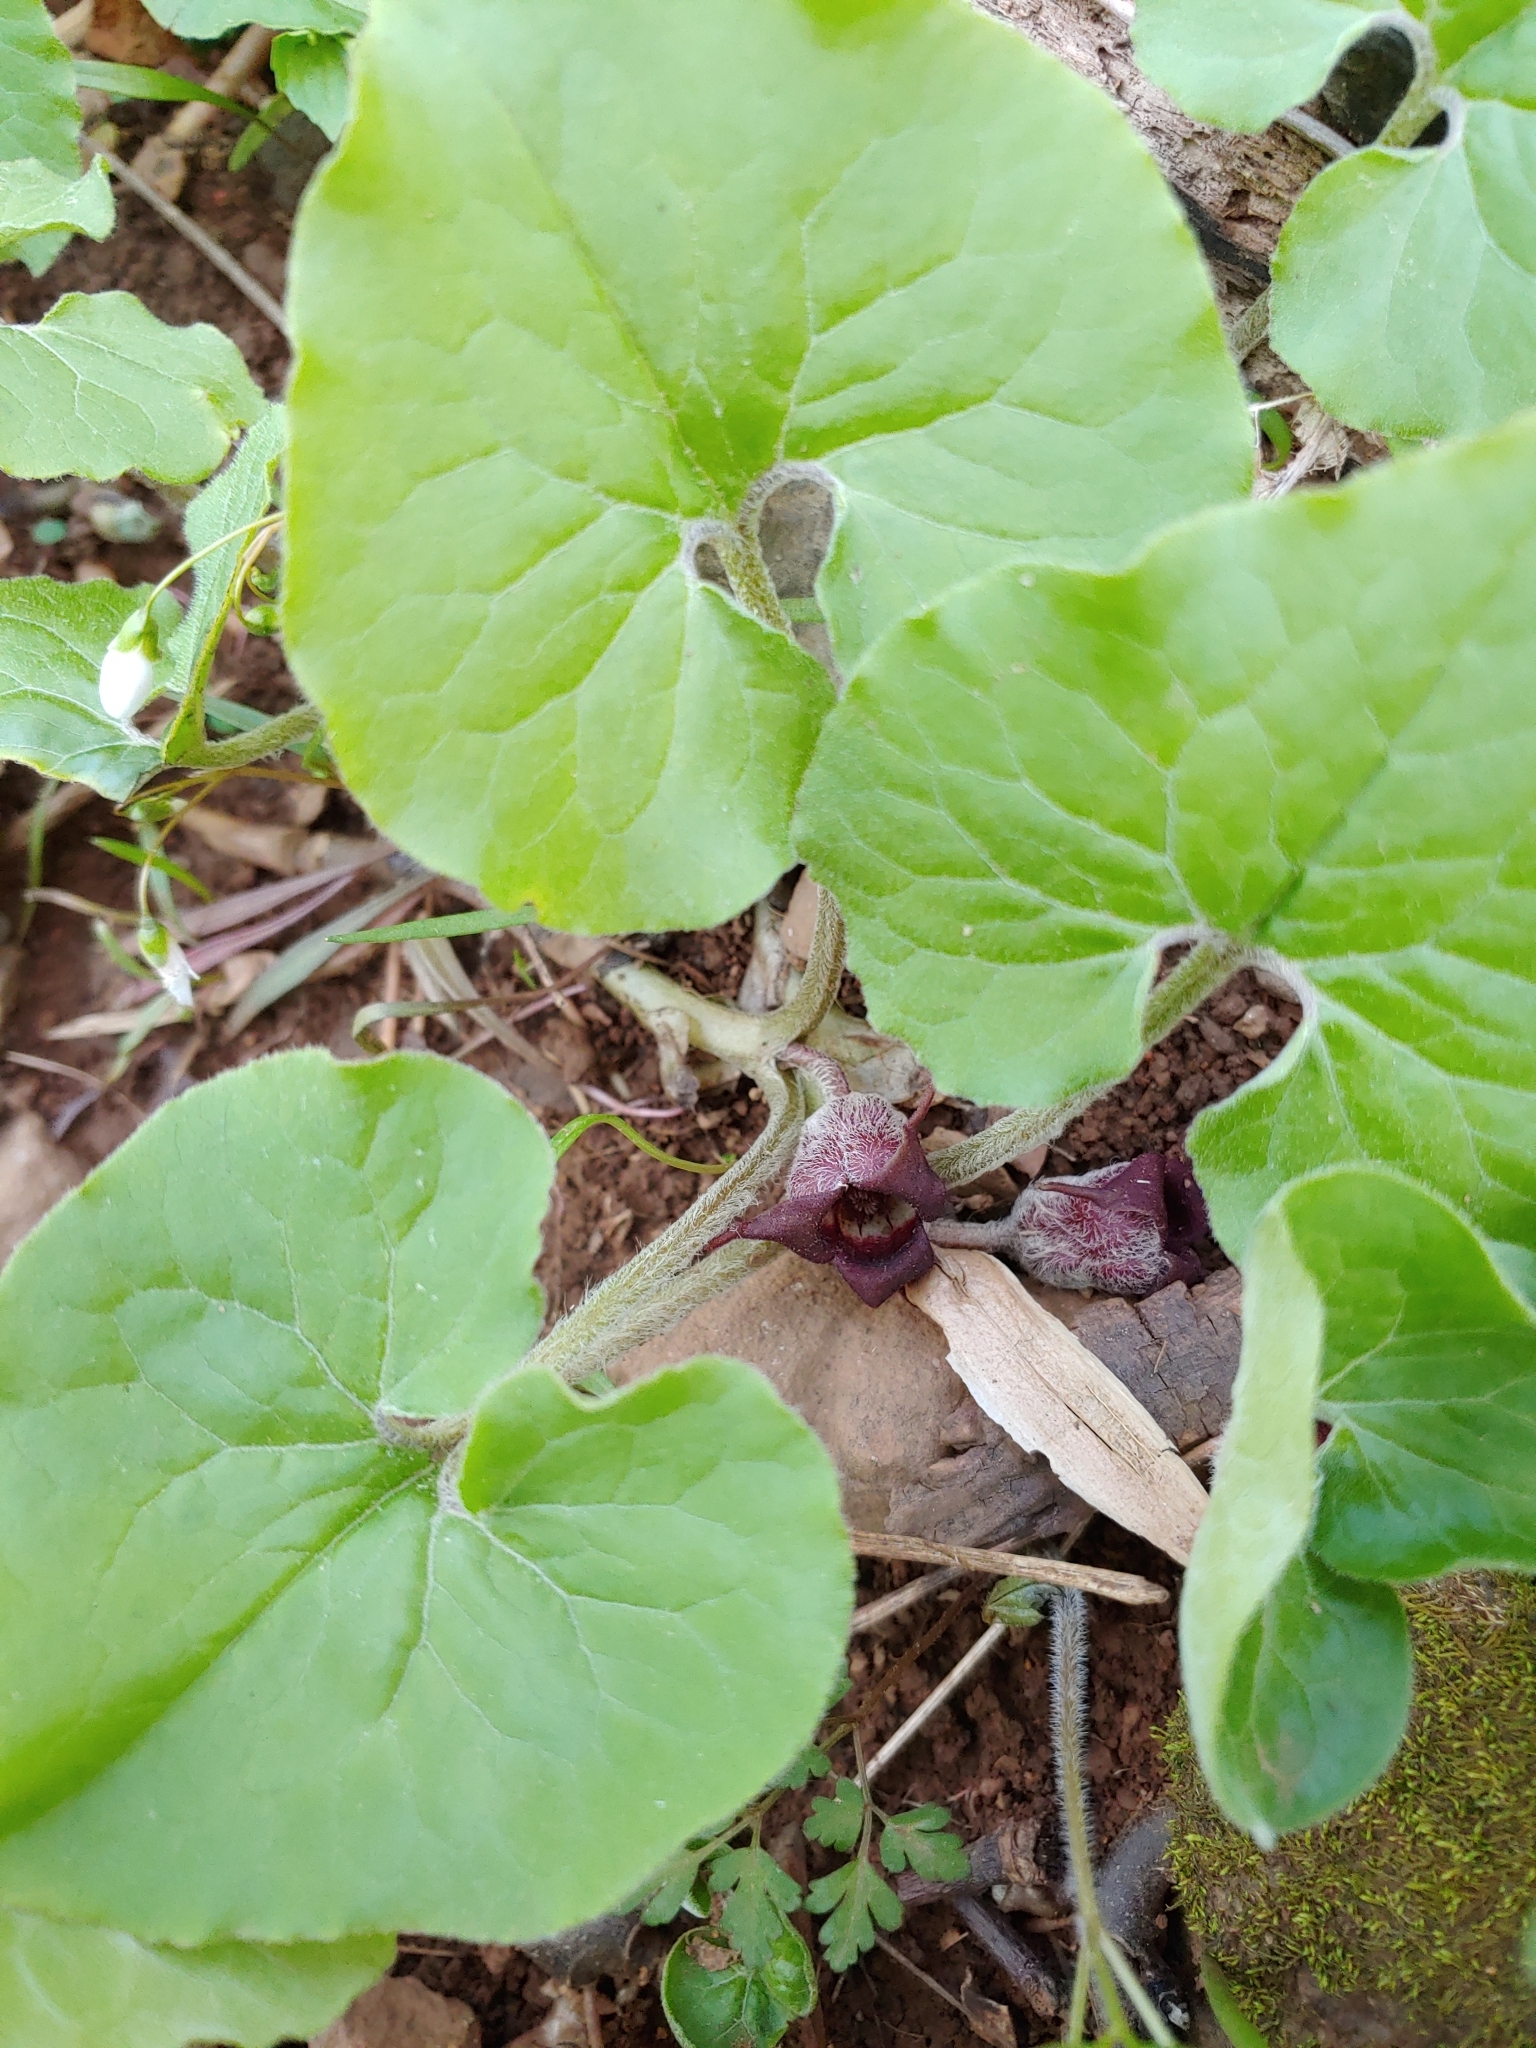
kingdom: Plantae
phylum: Tracheophyta
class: Magnoliopsida
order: Piperales
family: Aristolochiaceae
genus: Asarum
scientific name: Asarum canadense
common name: Wild ginger
